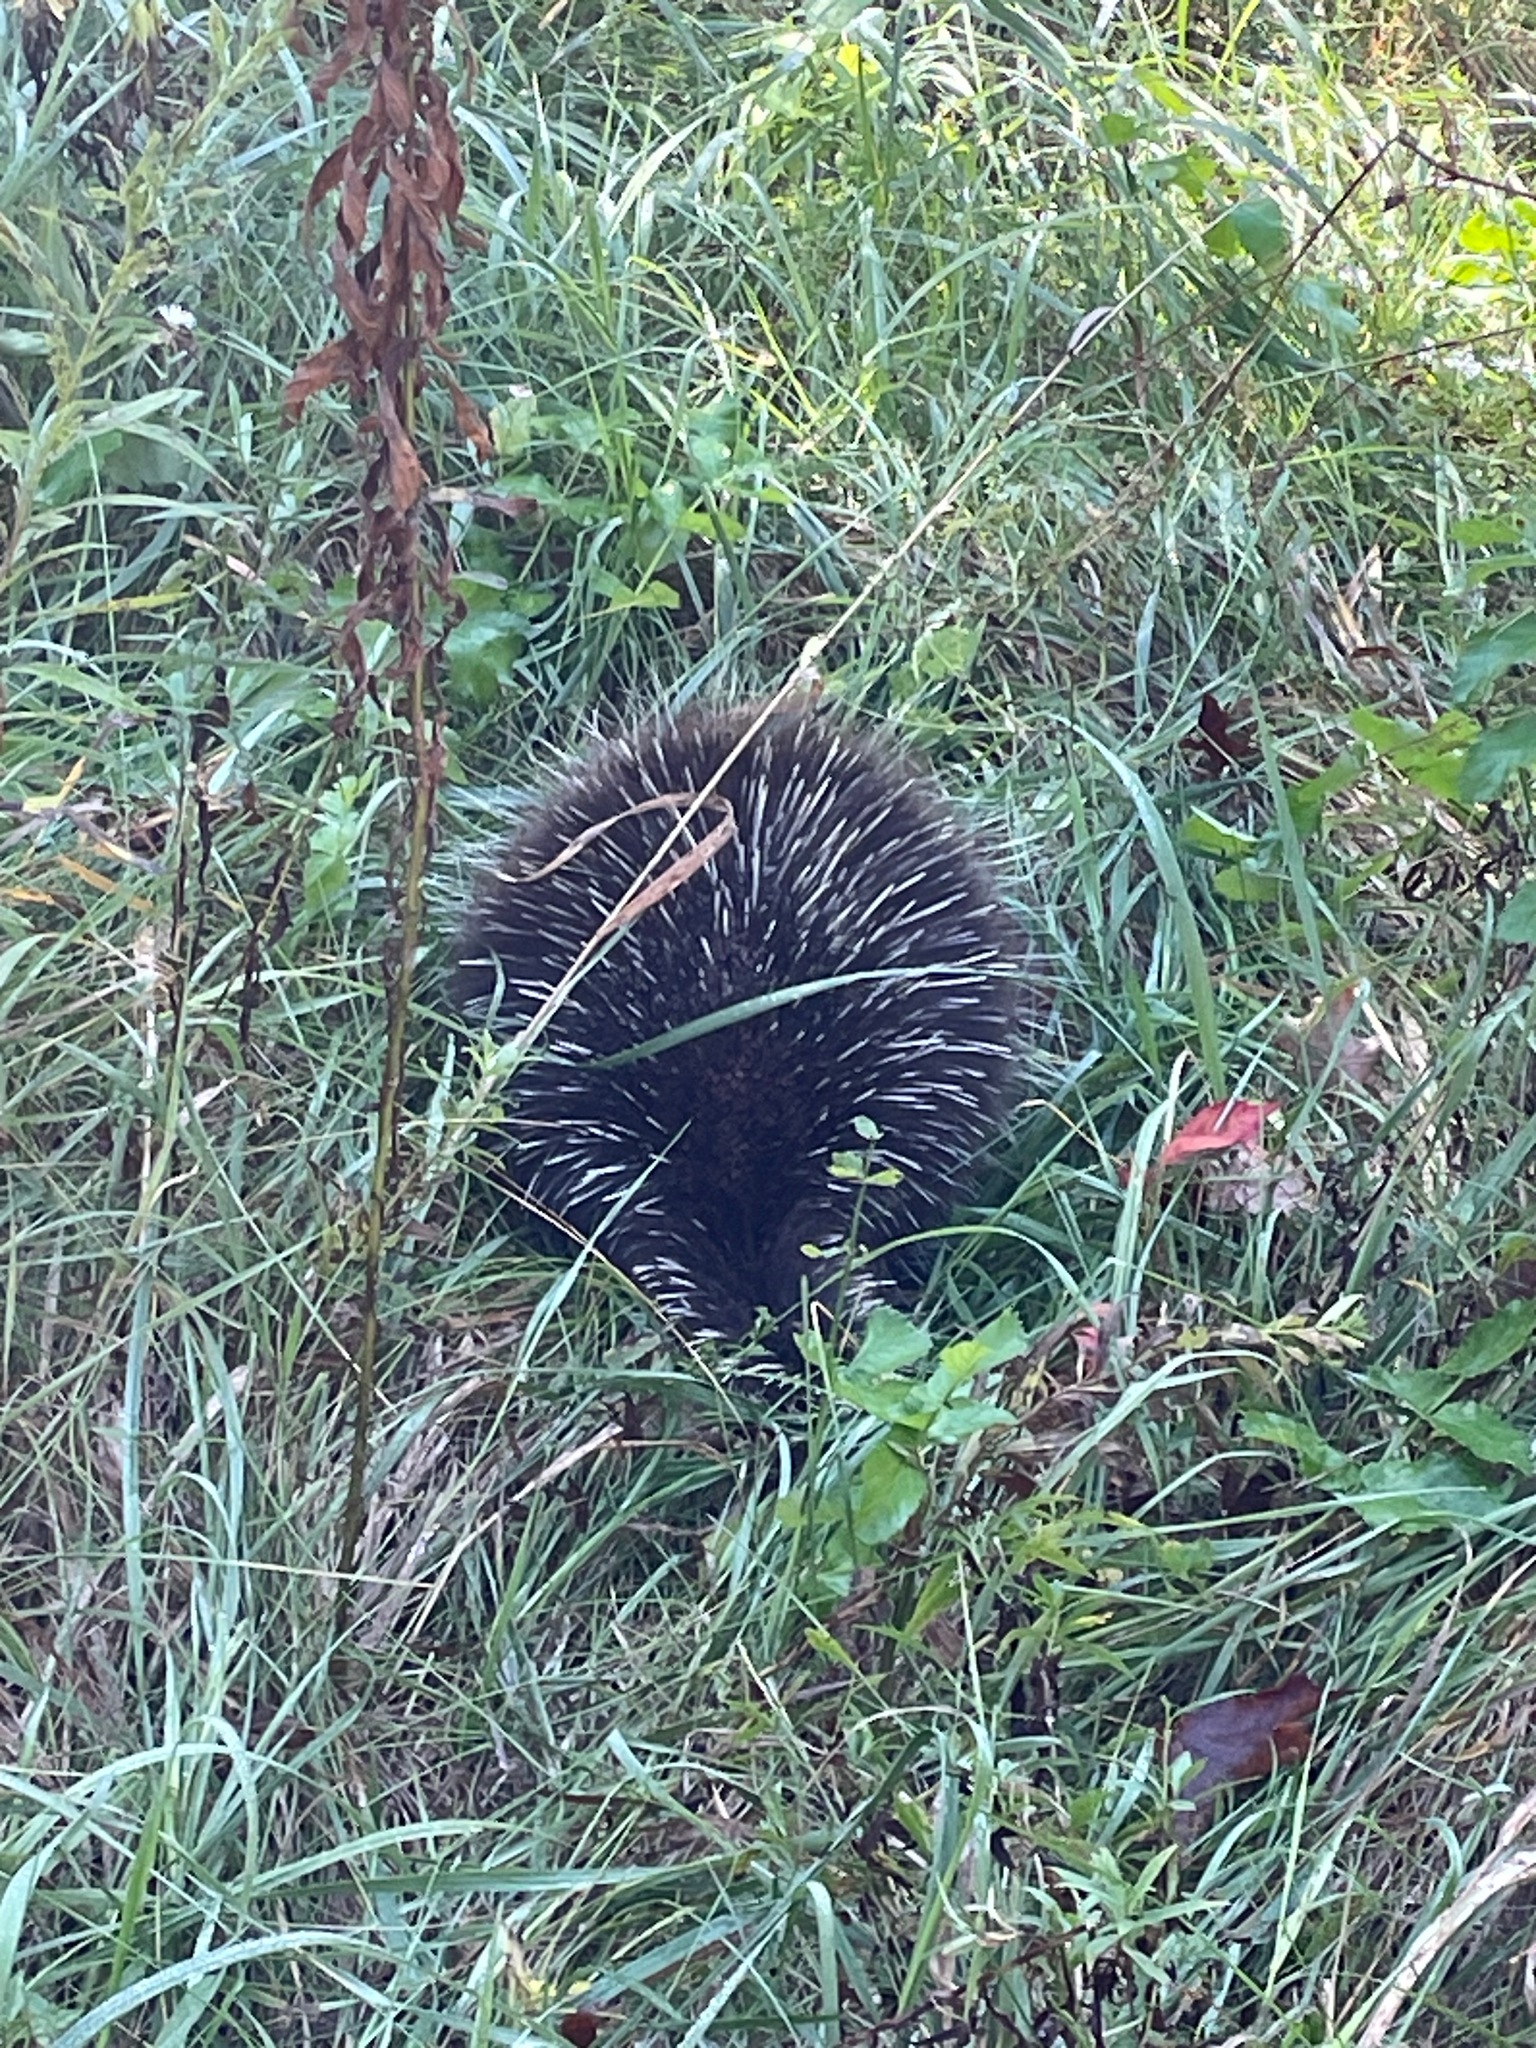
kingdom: Animalia
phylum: Chordata
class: Mammalia
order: Rodentia
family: Erethizontidae
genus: Erethizon
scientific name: Erethizon dorsatus
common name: North american porcupine
